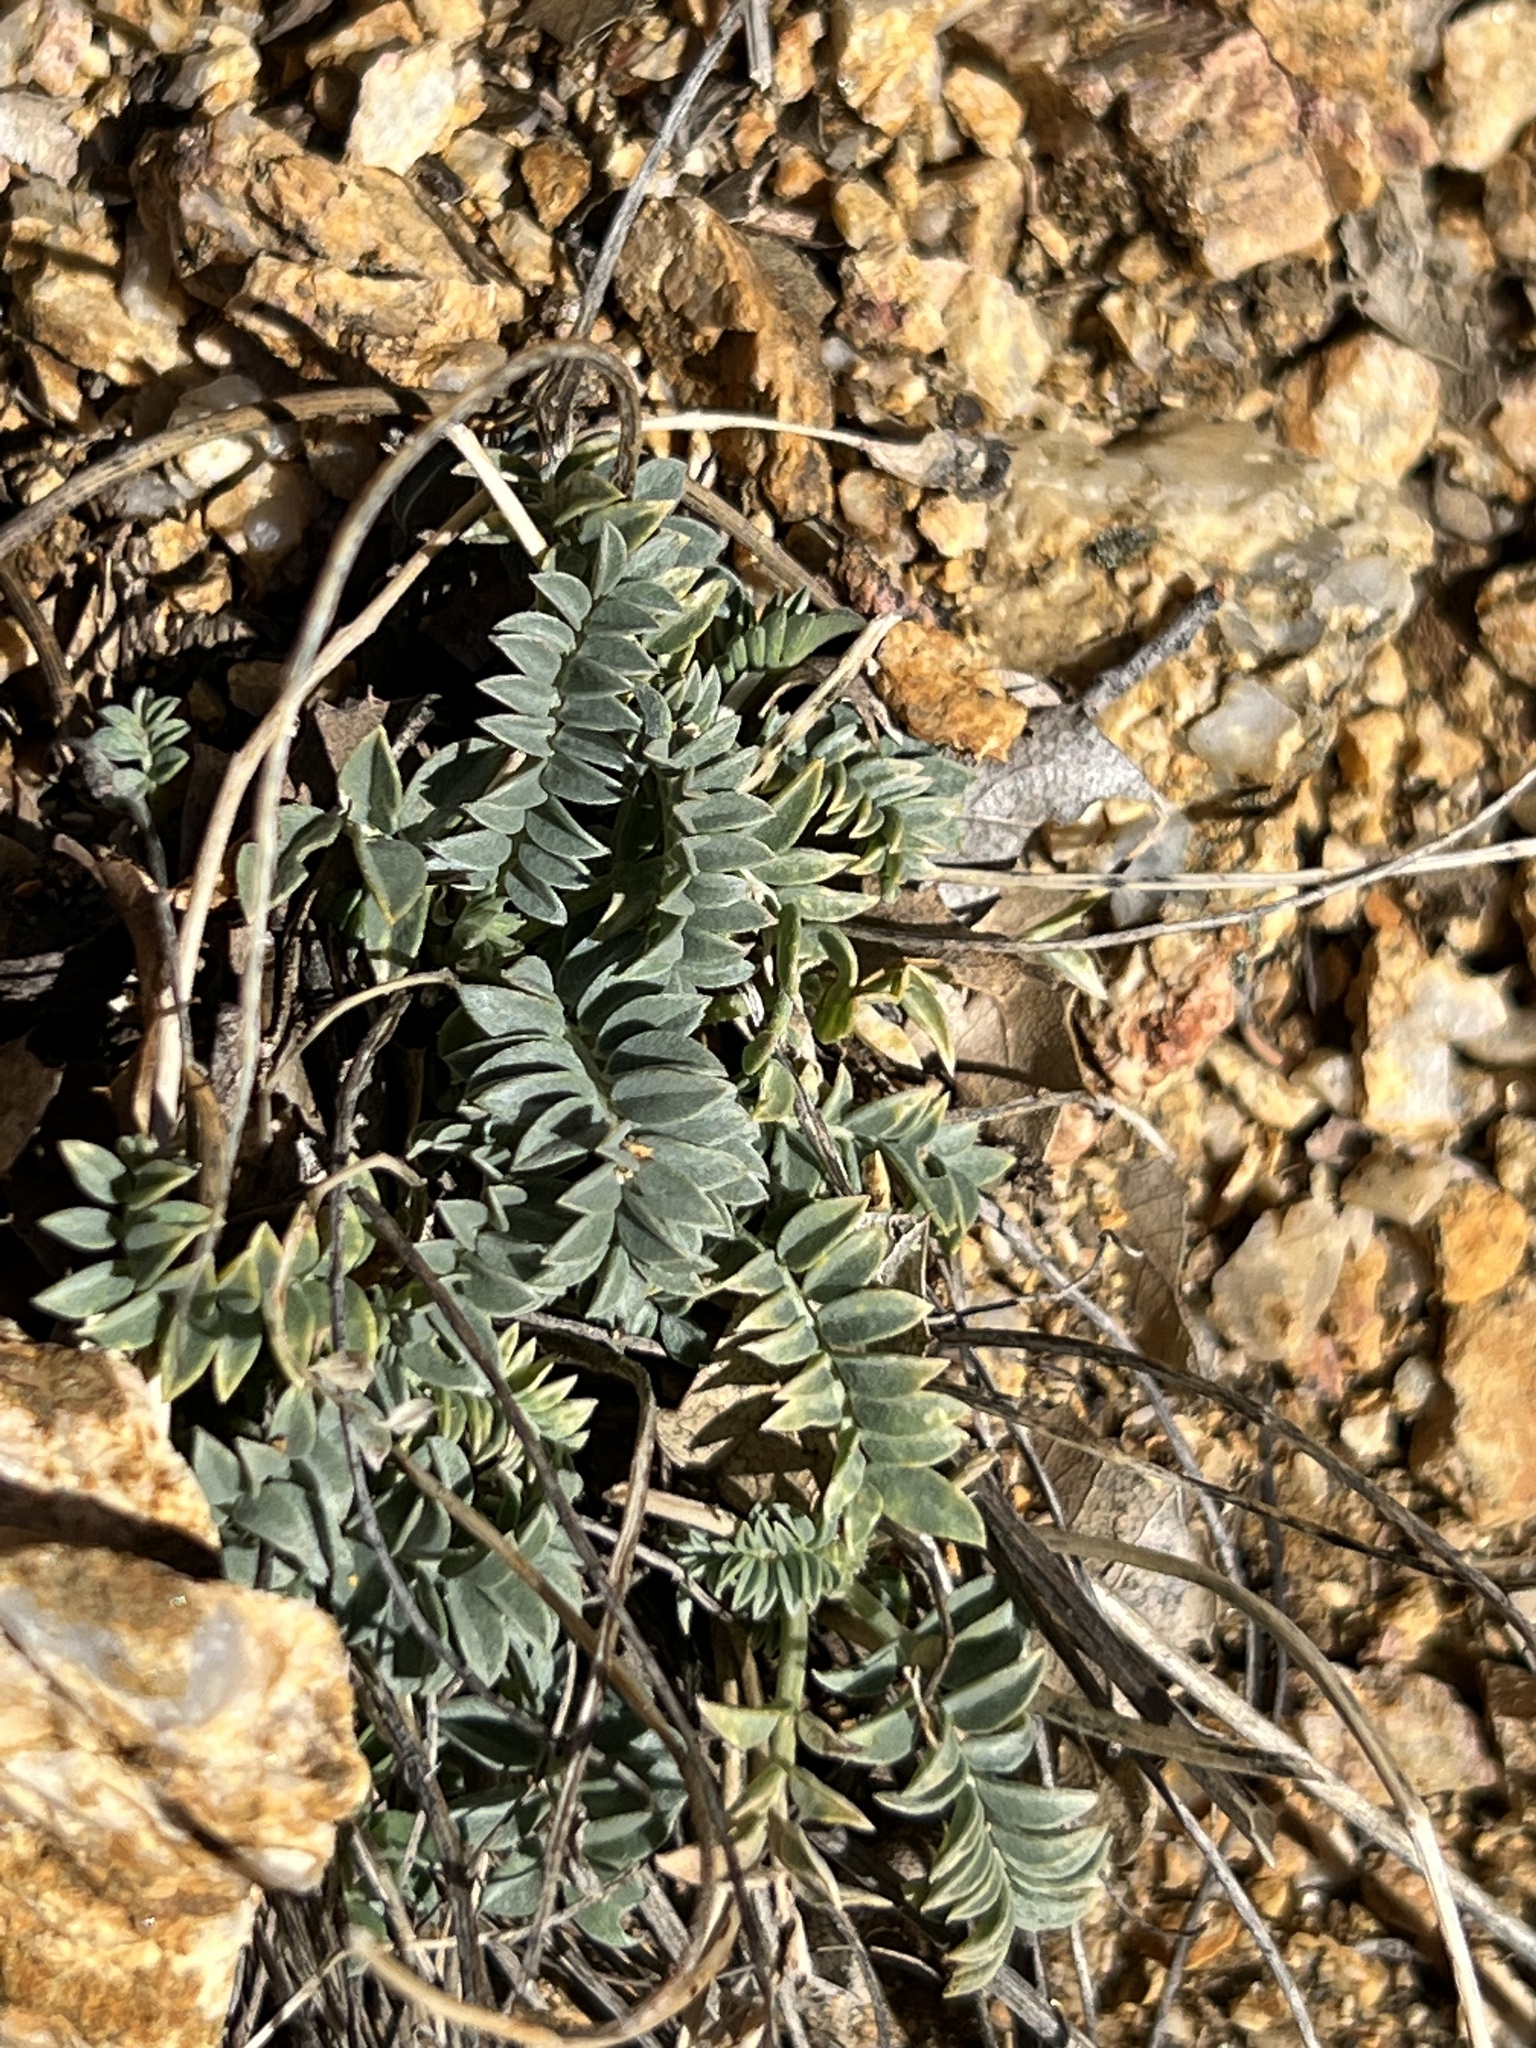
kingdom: Plantae
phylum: Tracheophyta
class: Magnoliopsida
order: Fabales
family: Fabaceae
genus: Astragalus
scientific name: Astragalus tephrodes
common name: Ashen milk-vetch
